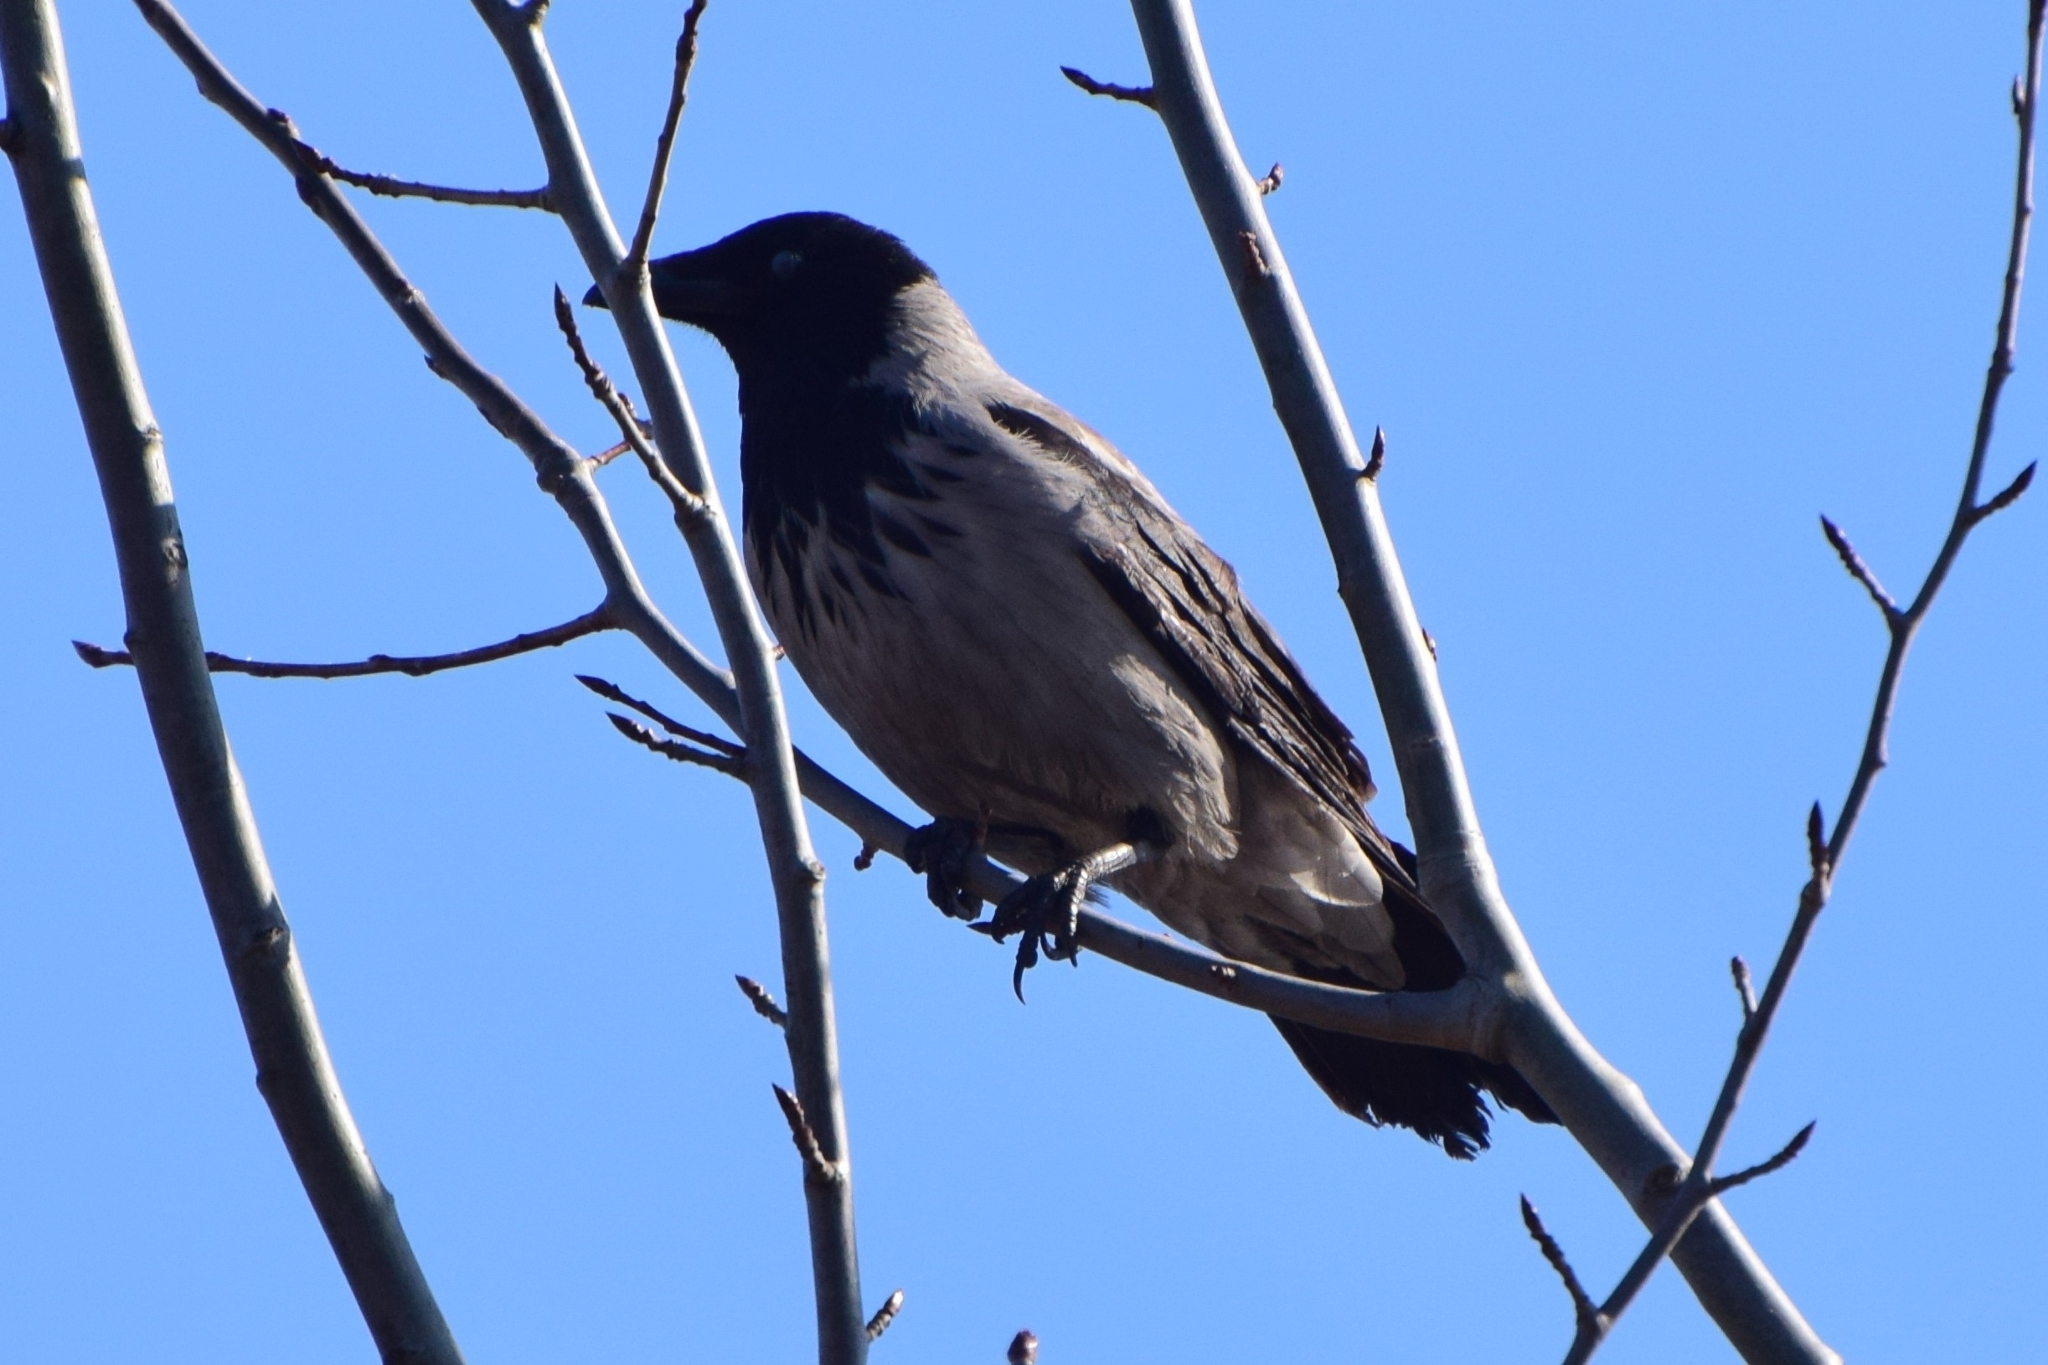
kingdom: Animalia
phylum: Chordata
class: Aves
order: Passeriformes
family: Corvidae
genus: Corvus
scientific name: Corvus cornix
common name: Hooded crow
